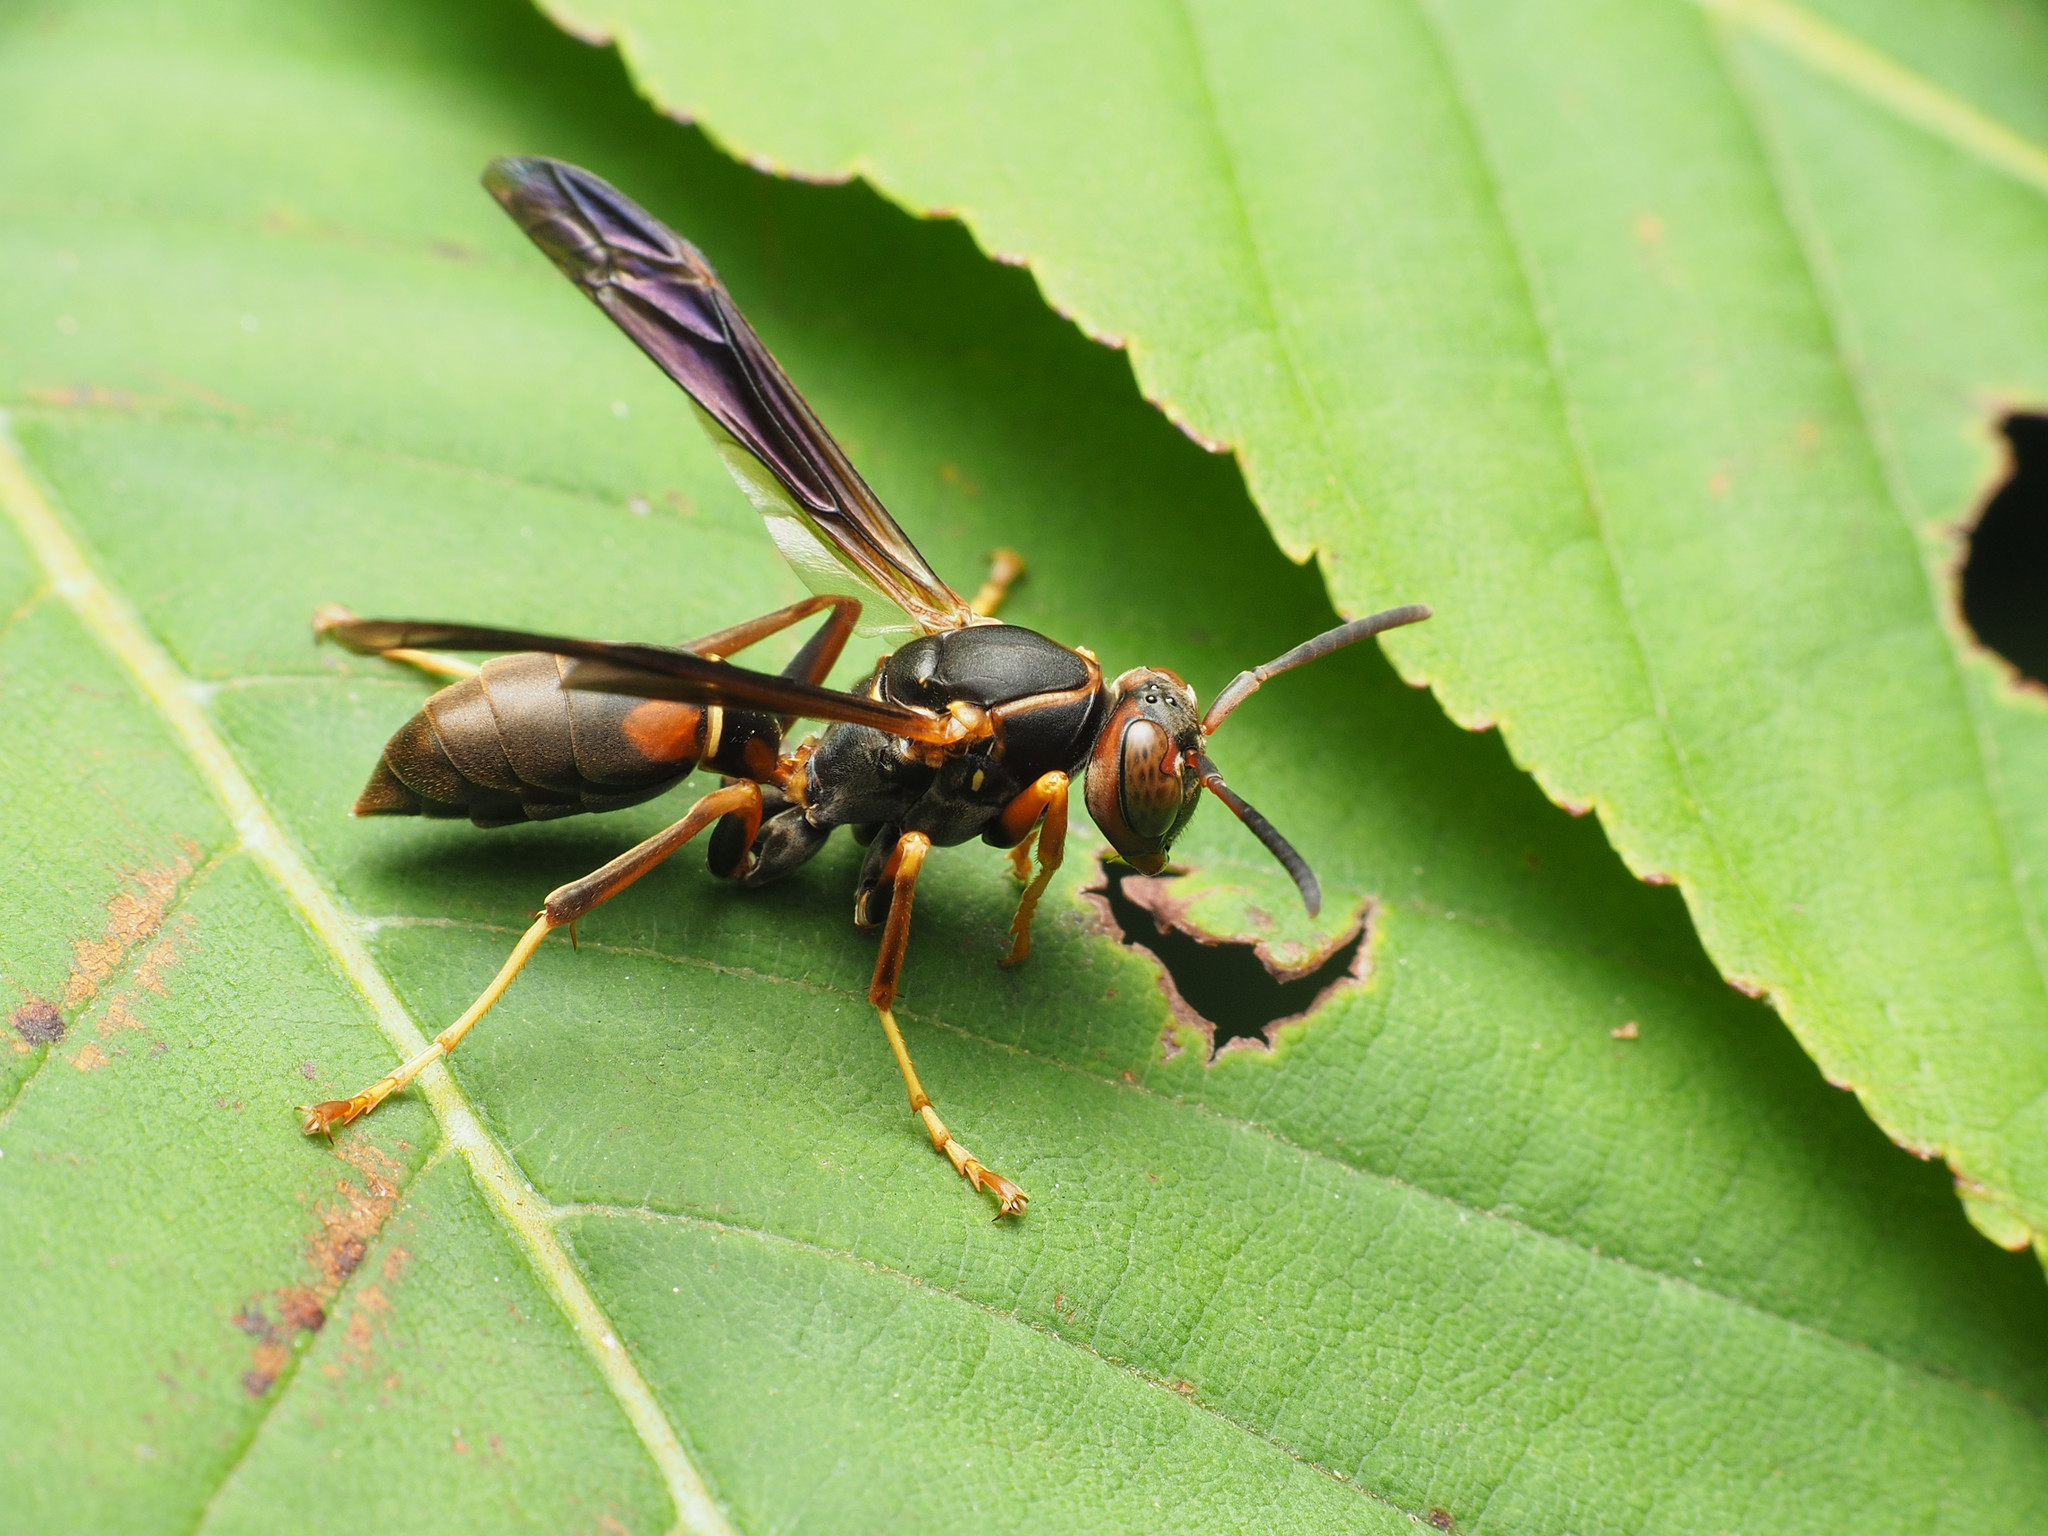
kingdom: Animalia
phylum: Arthropoda
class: Insecta
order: Hymenoptera
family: Eumenidae
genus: Polistes
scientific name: Polistes fuscatus
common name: Dark paper wasp
